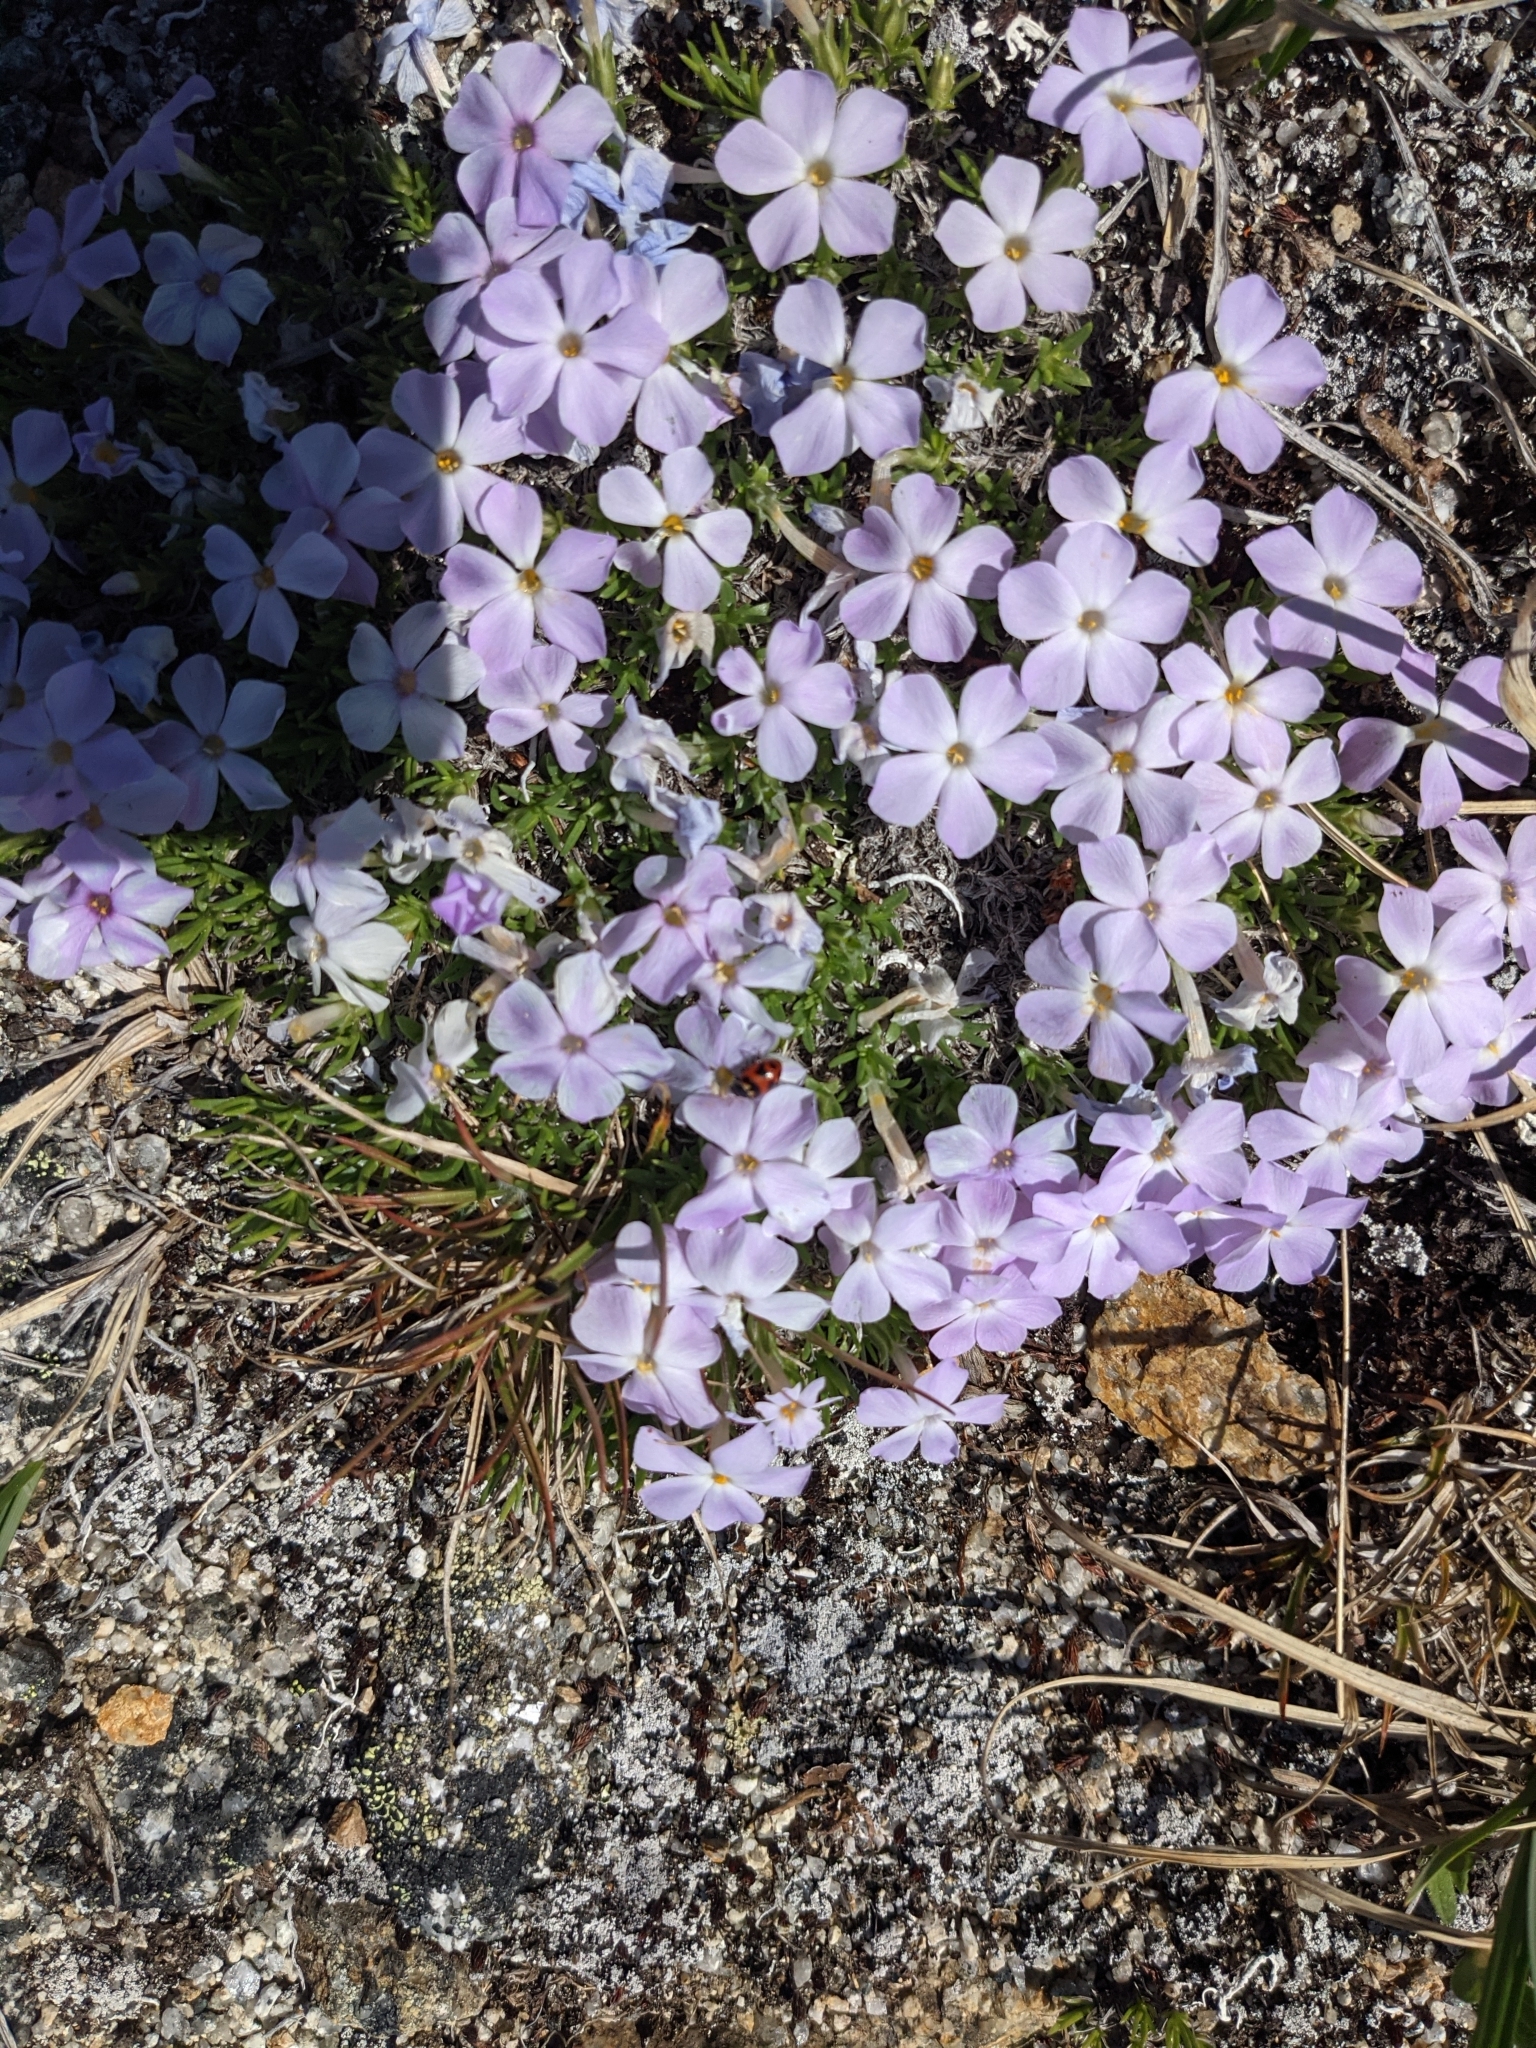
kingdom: Plantae
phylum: Tracheophyta
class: Magnoliopsida
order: Ericales
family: Polemoniaceae
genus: Phlox
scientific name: Phlox diffusa
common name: Mat phlox
